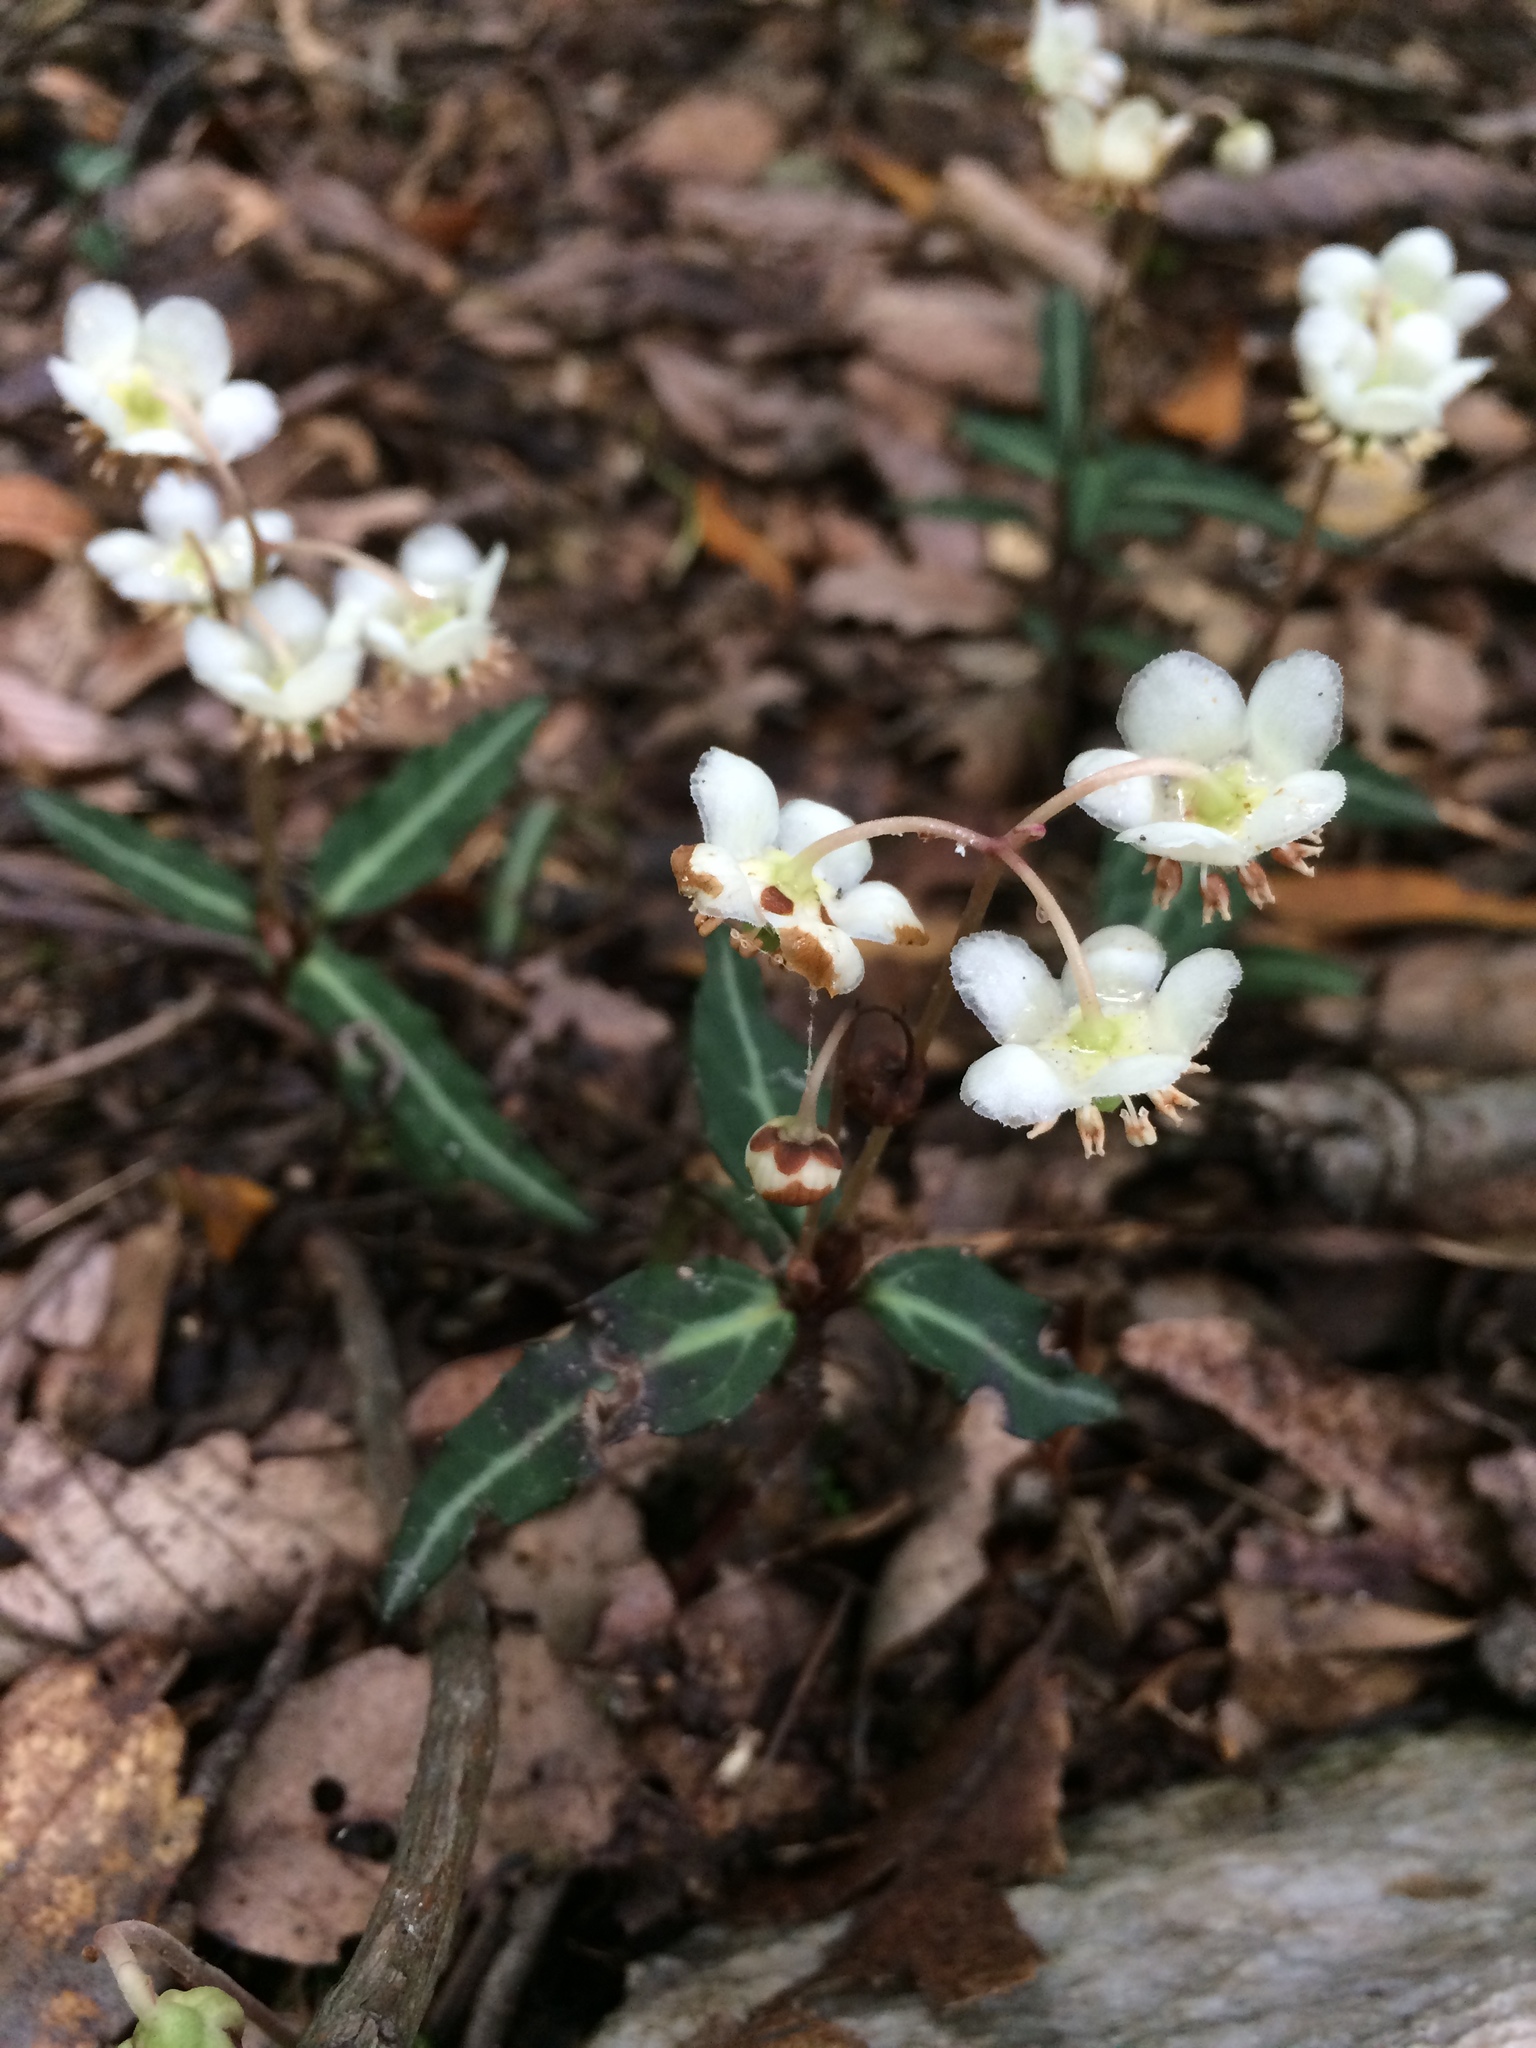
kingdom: Plantae
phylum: Tracheophyta
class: Magnoliopsida
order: Ericales
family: Ericaceae
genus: Chimaphila
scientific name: Chimaphila maculata
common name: Spotted pipsissewa
